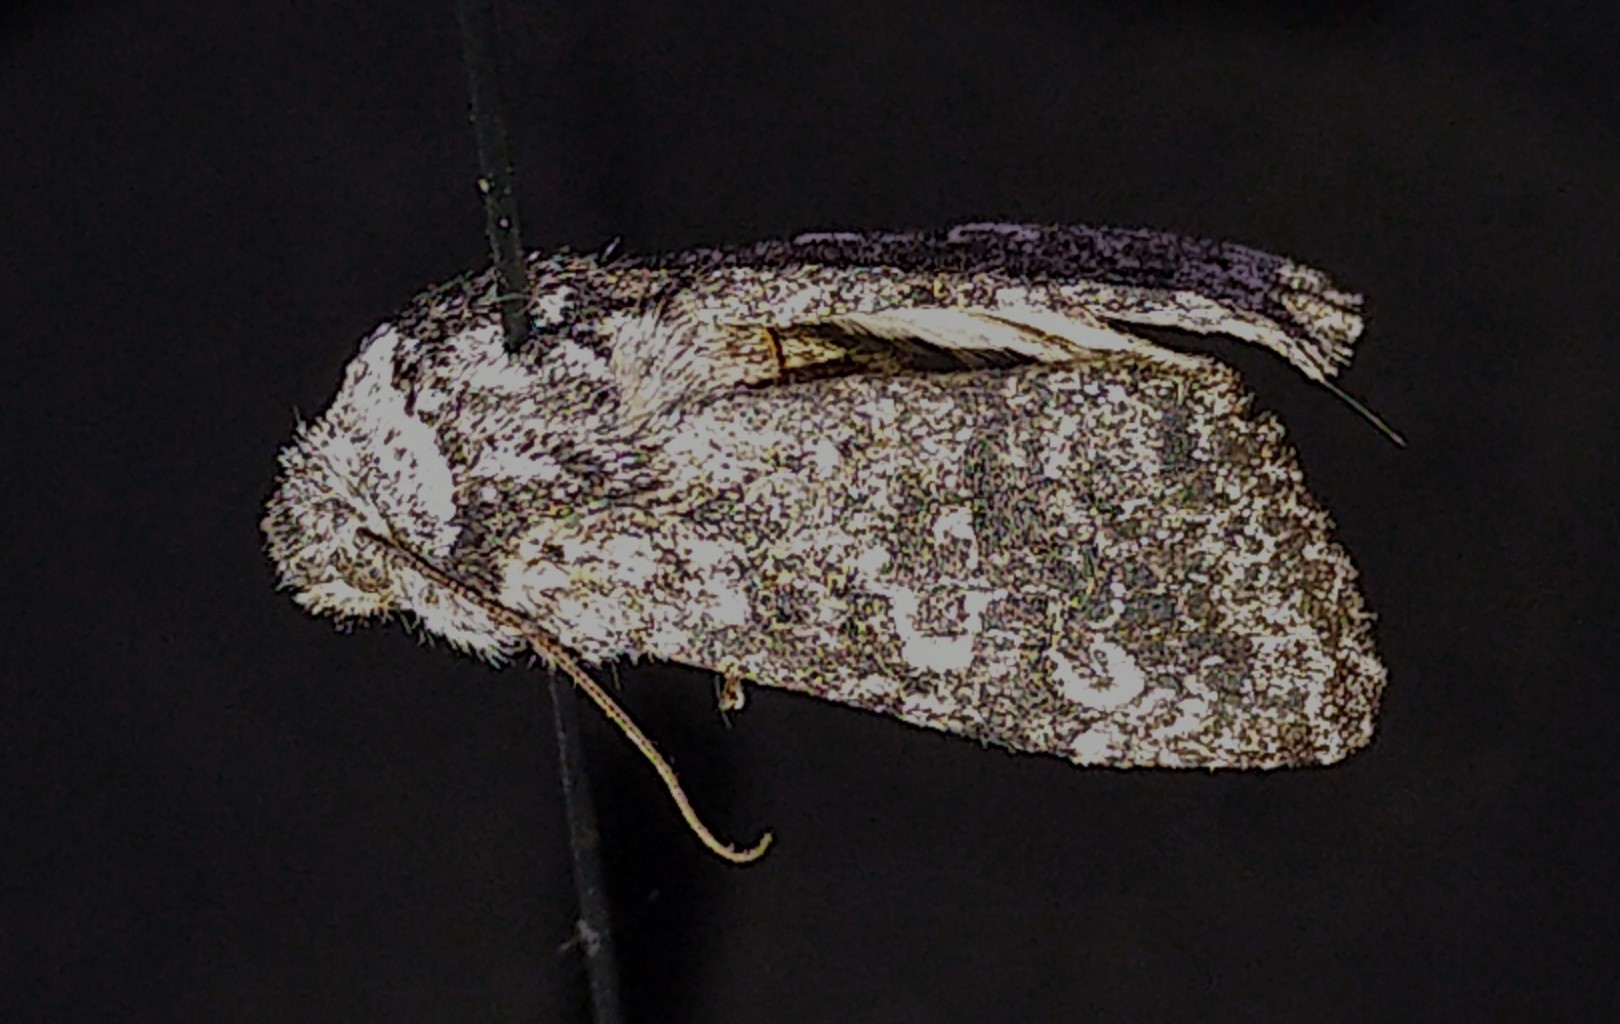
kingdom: Animalia
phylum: Arthropoda
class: Insecta
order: Lepidoptera
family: Noctuidae
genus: Egira
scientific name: Egira dolosa
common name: Lined black aspen cat.
